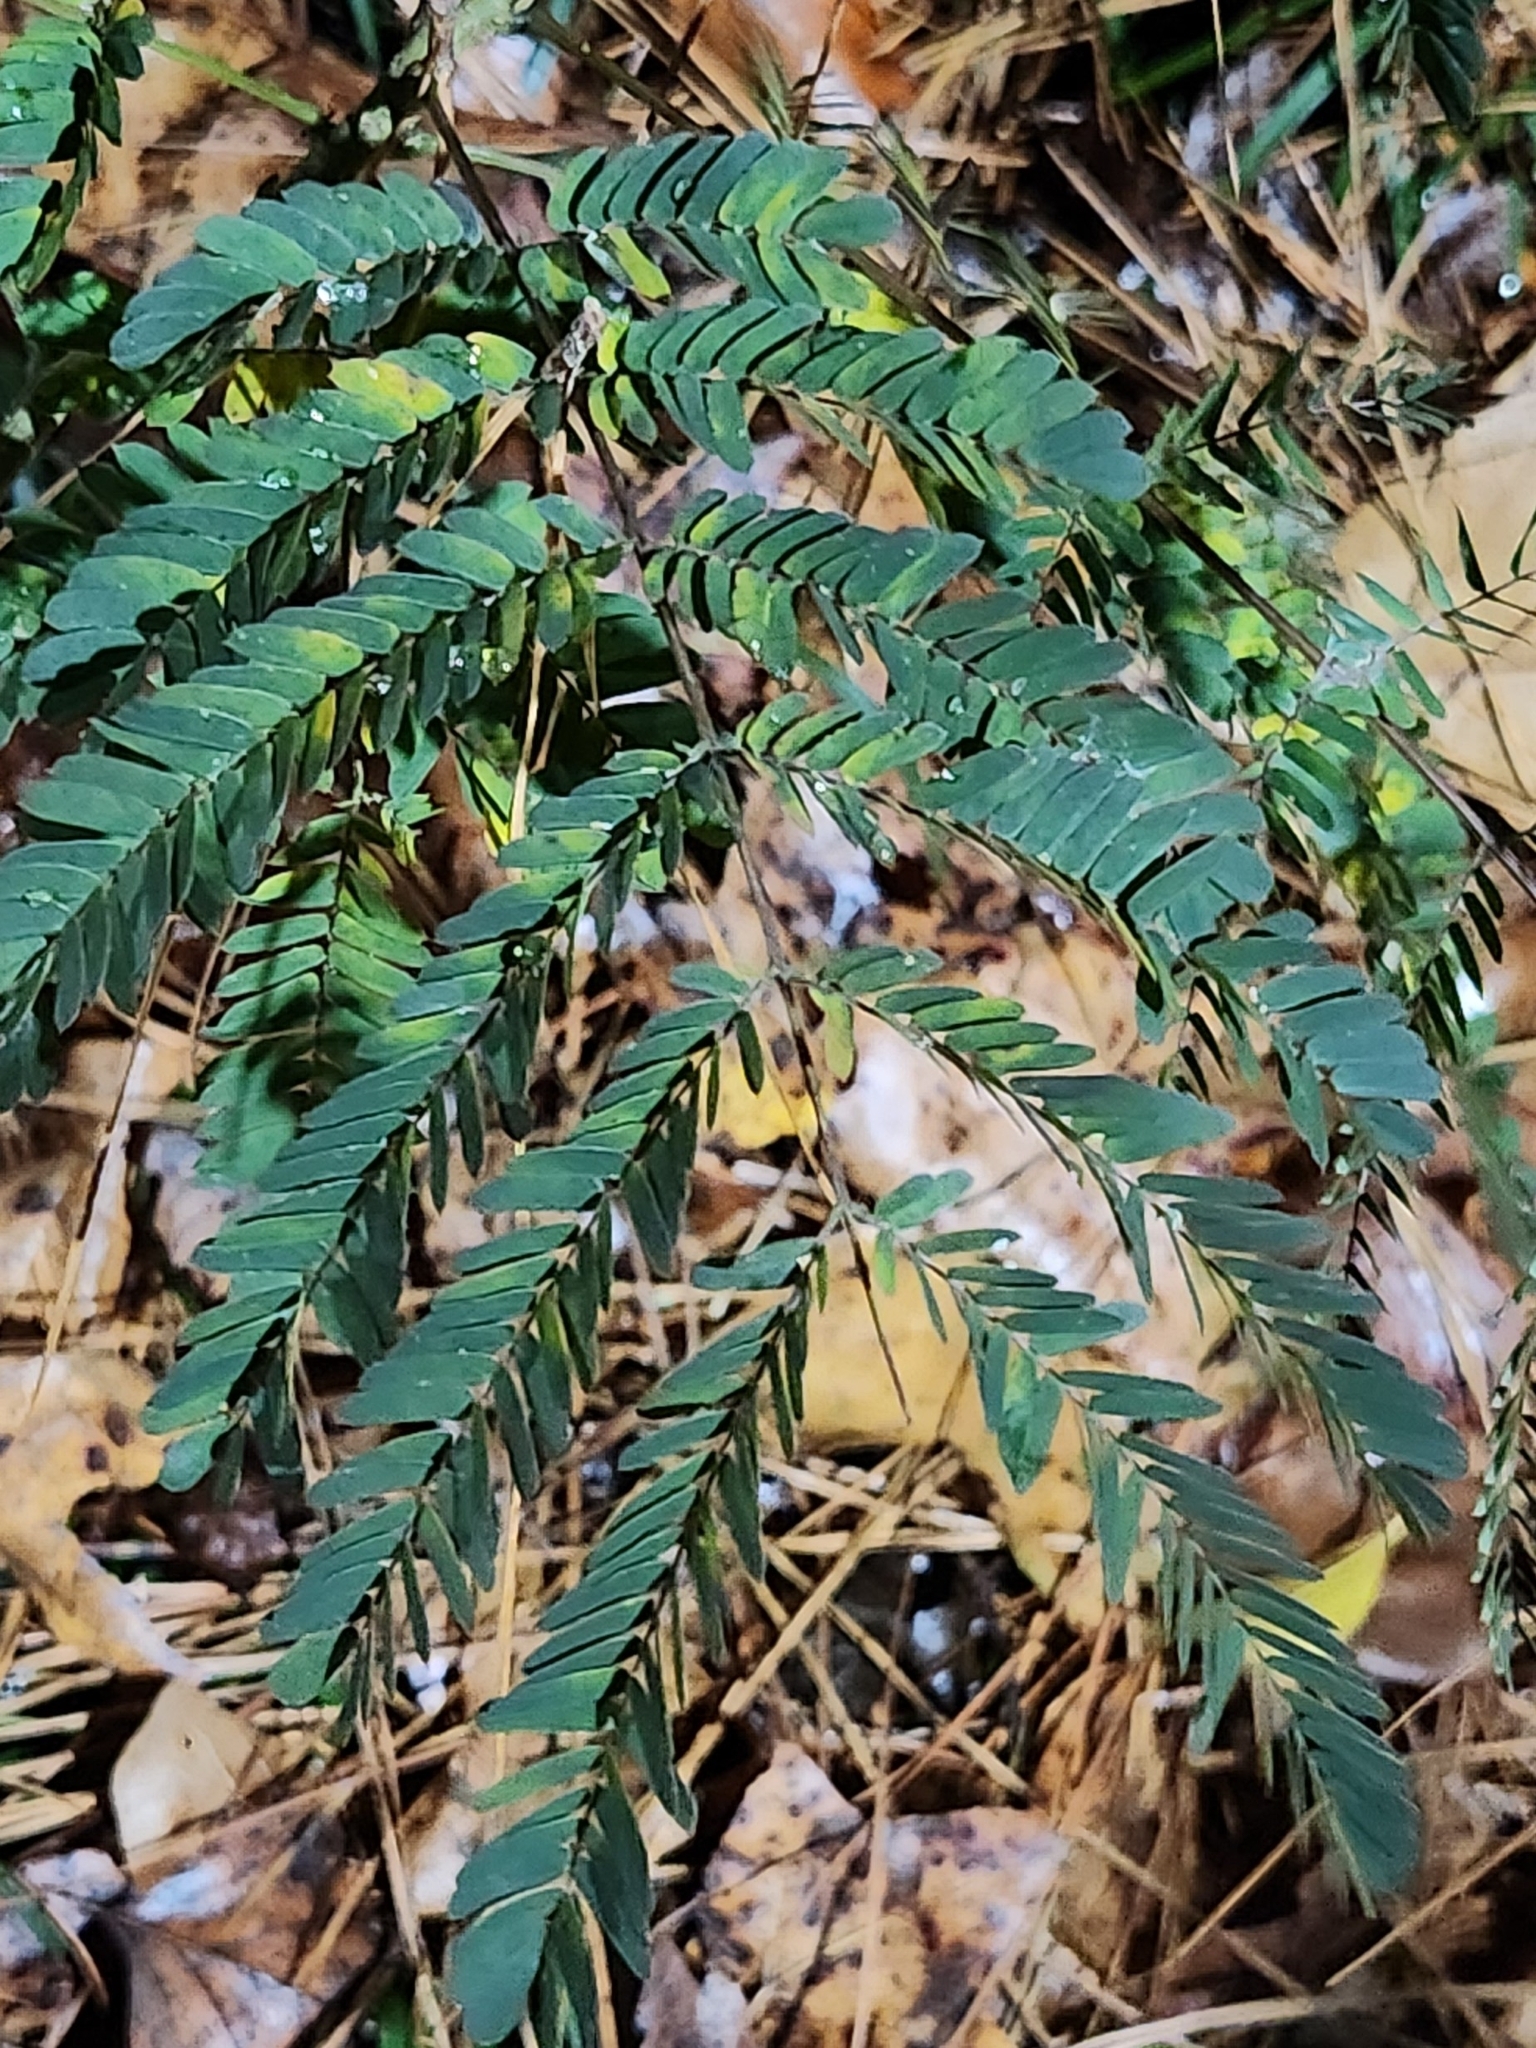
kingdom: Plantae
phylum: Tracheophyta
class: Magnoliopsida
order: Fabales
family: Fabaceae
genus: Albizia
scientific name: Albizia julibrissin
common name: Silktree
